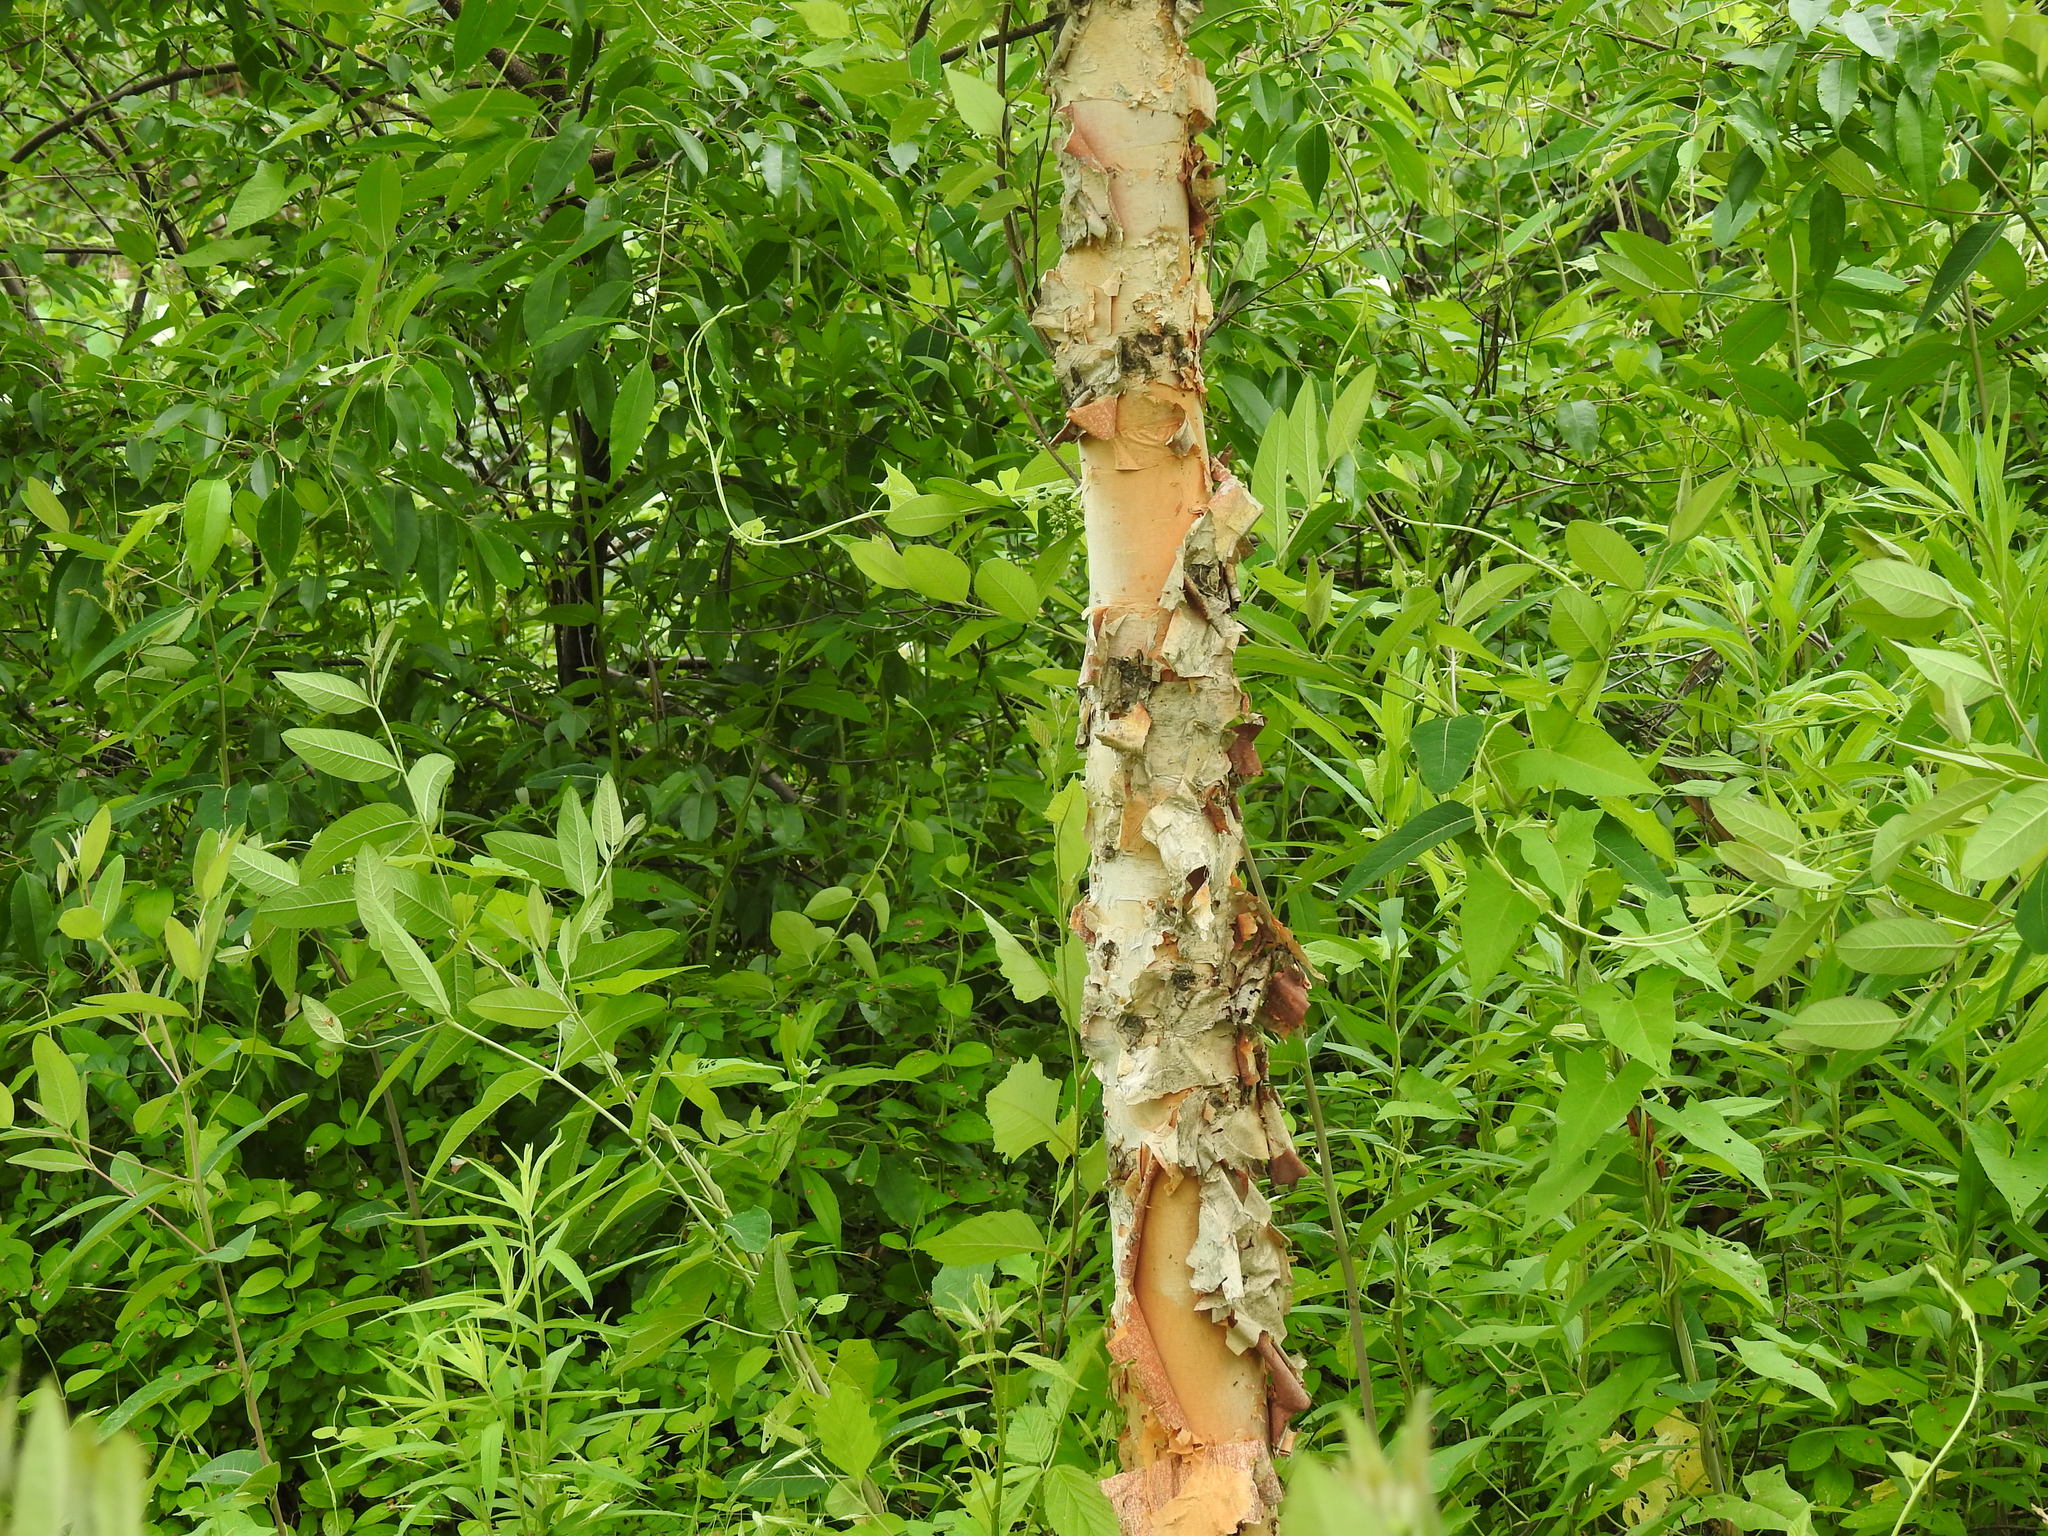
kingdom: Plantae
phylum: Tracheophyta
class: Magnoliopsida
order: Fagales
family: Betulaceae
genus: Betula
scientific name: Betula nigra
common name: Black birch
